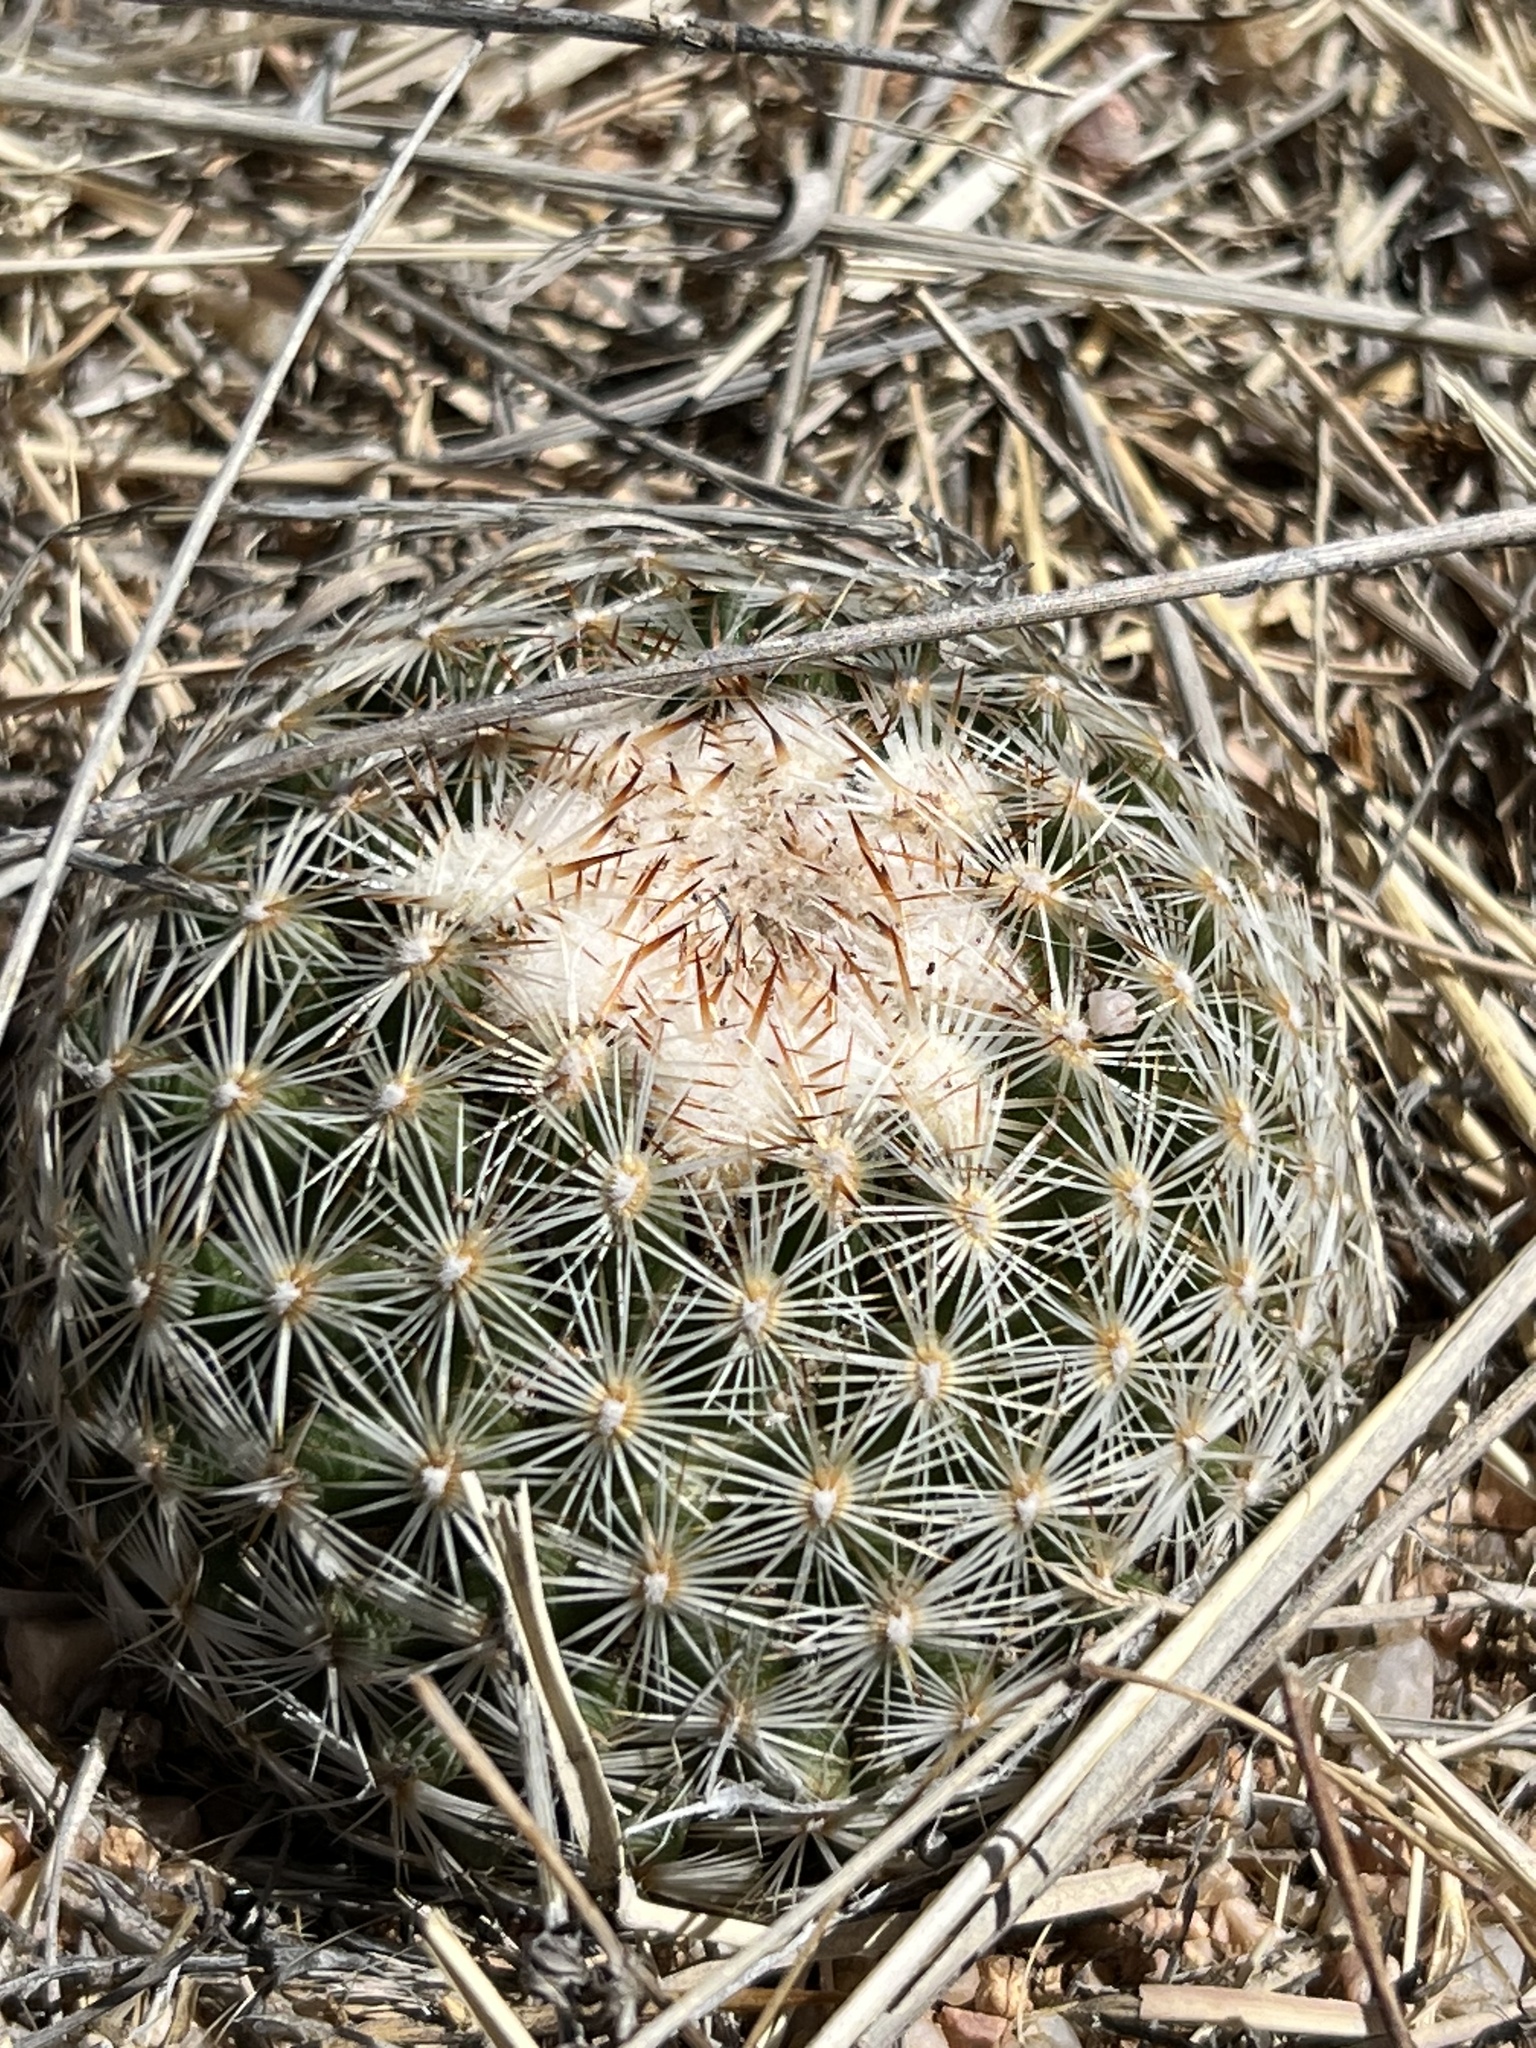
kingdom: Plantae
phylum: Tracheophyta
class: Magnoliopsida
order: Caryophyllales
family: Cactaceae
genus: Sclerocactus
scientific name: Sclerocactus johnsonii
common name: Eight-spine fishhook cactus
